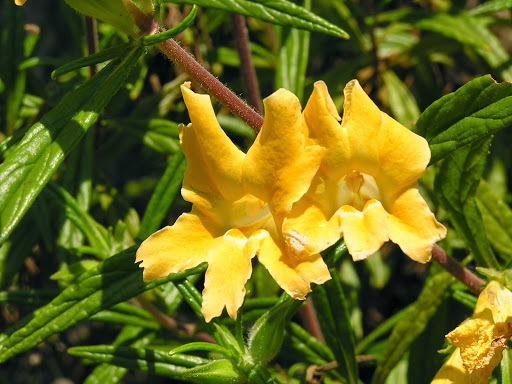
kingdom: Plantae
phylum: Tracheophyta
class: Magnoliopsida
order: Lamiales
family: Phrymaceae
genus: Diplacus
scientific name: Diplacus longiflorus
